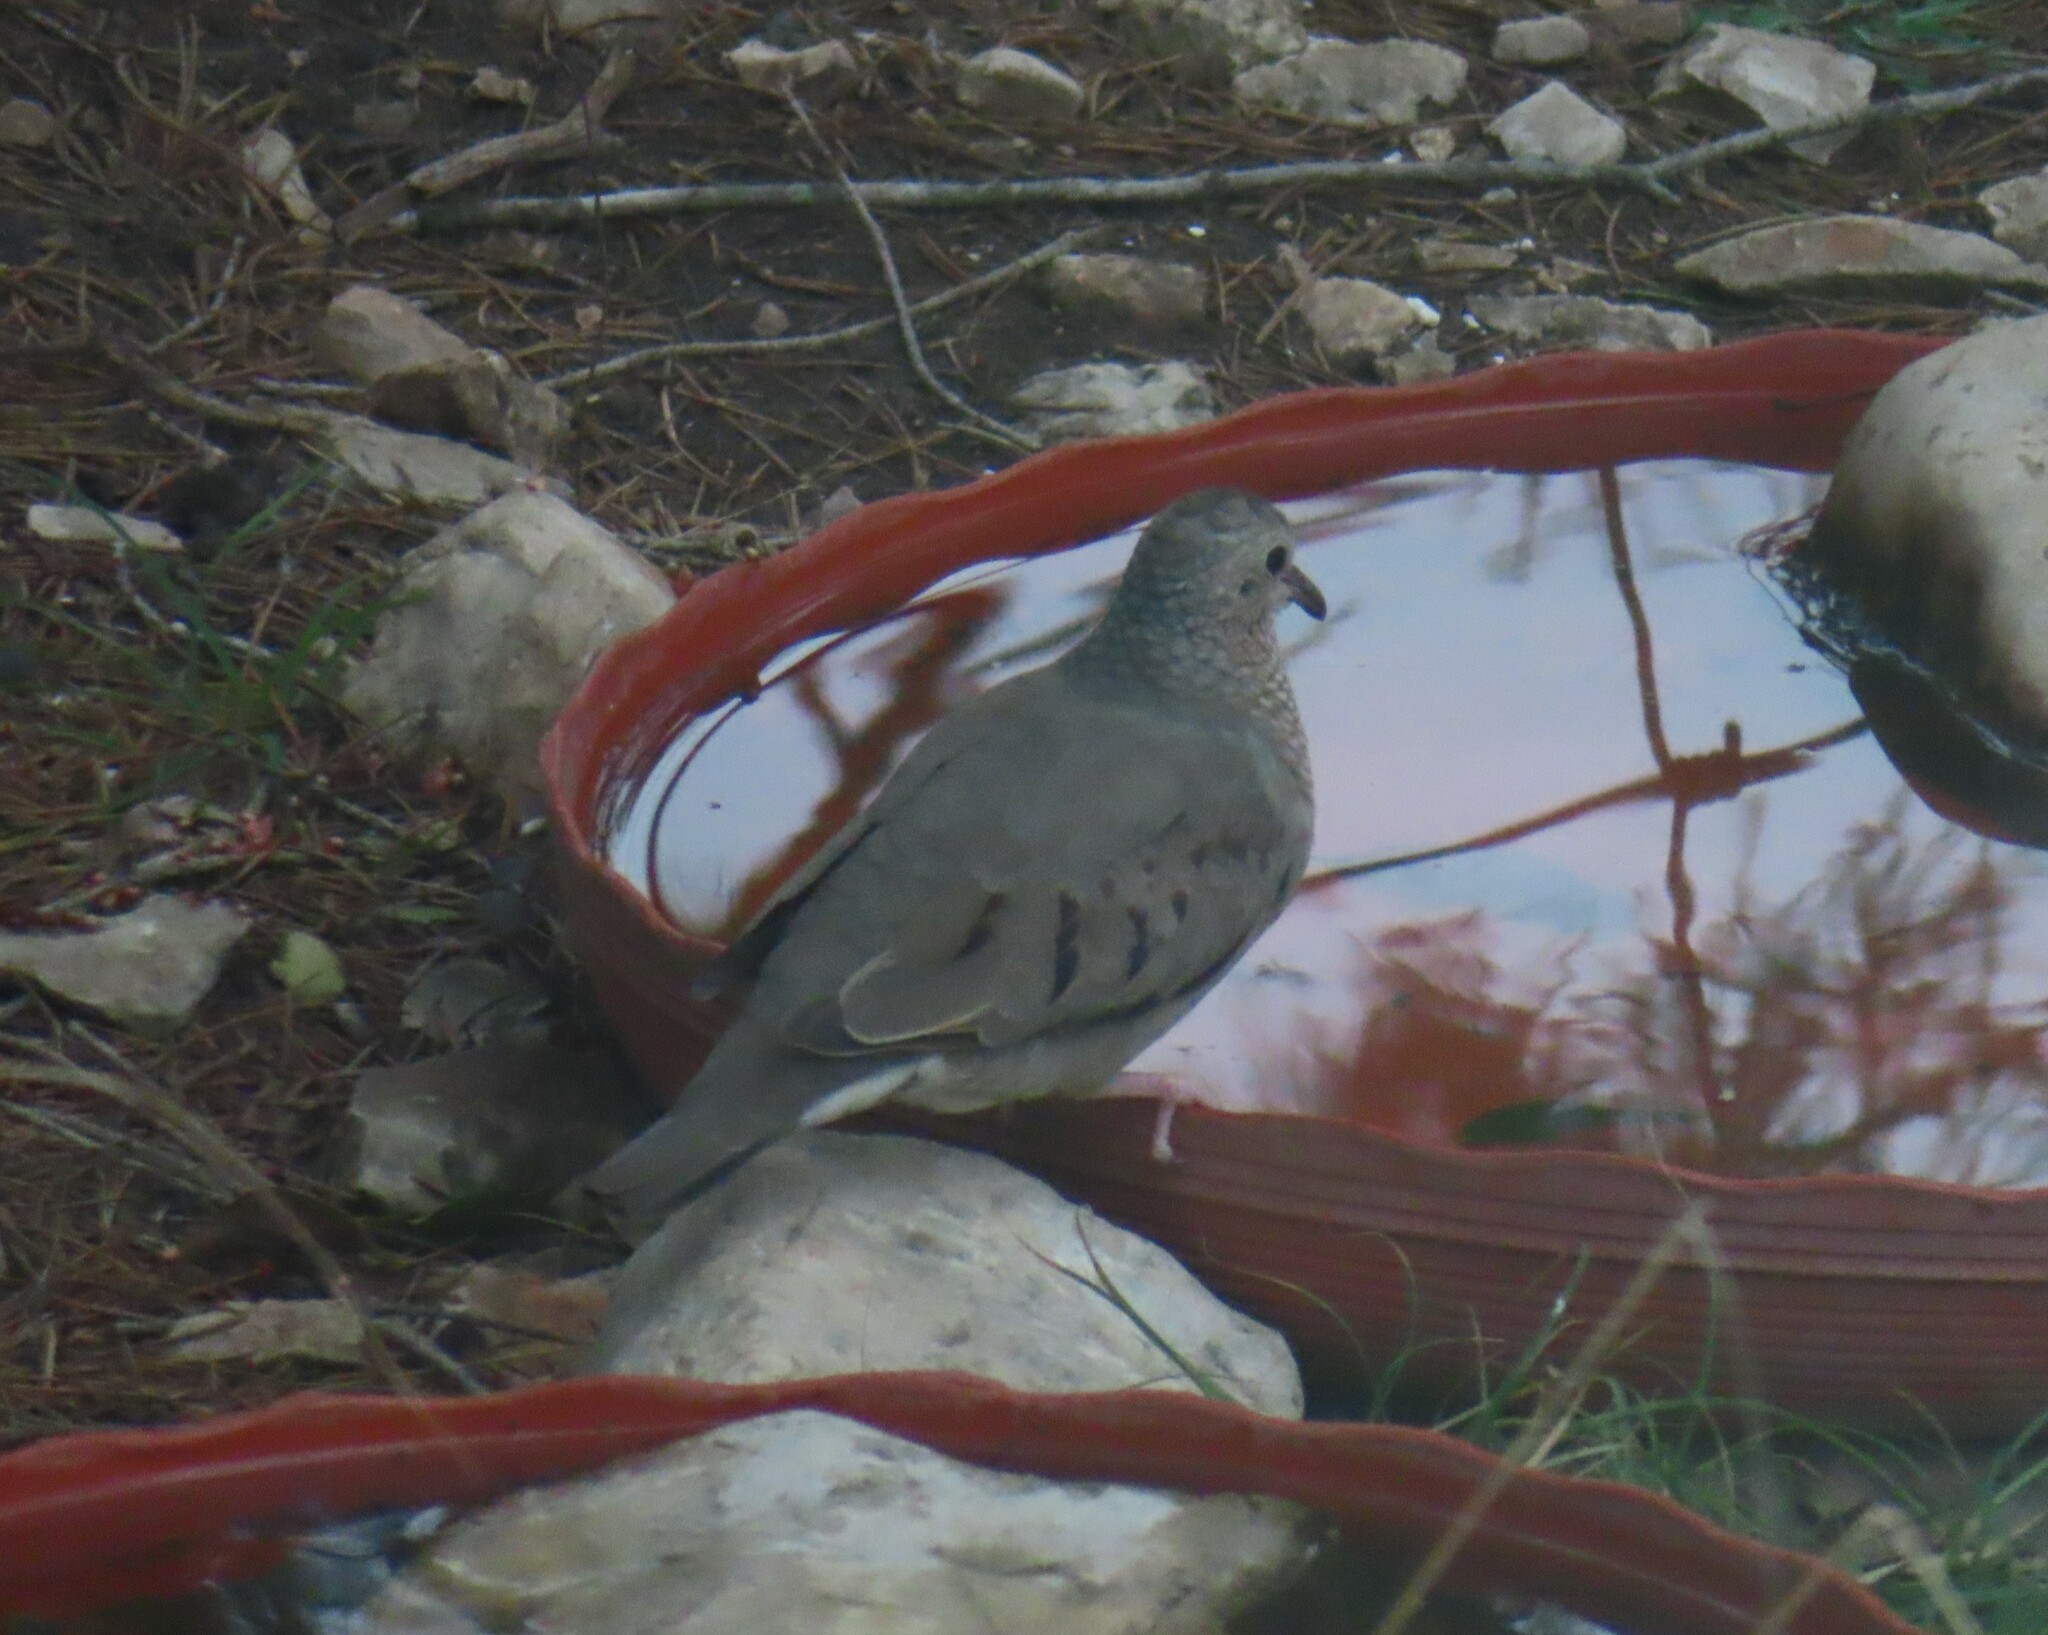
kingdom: Animalia
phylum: Chordata
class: Aves
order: Columbiformes
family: Columbidae
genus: Columbina
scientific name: Columbina passerina
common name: Common ground-dove
